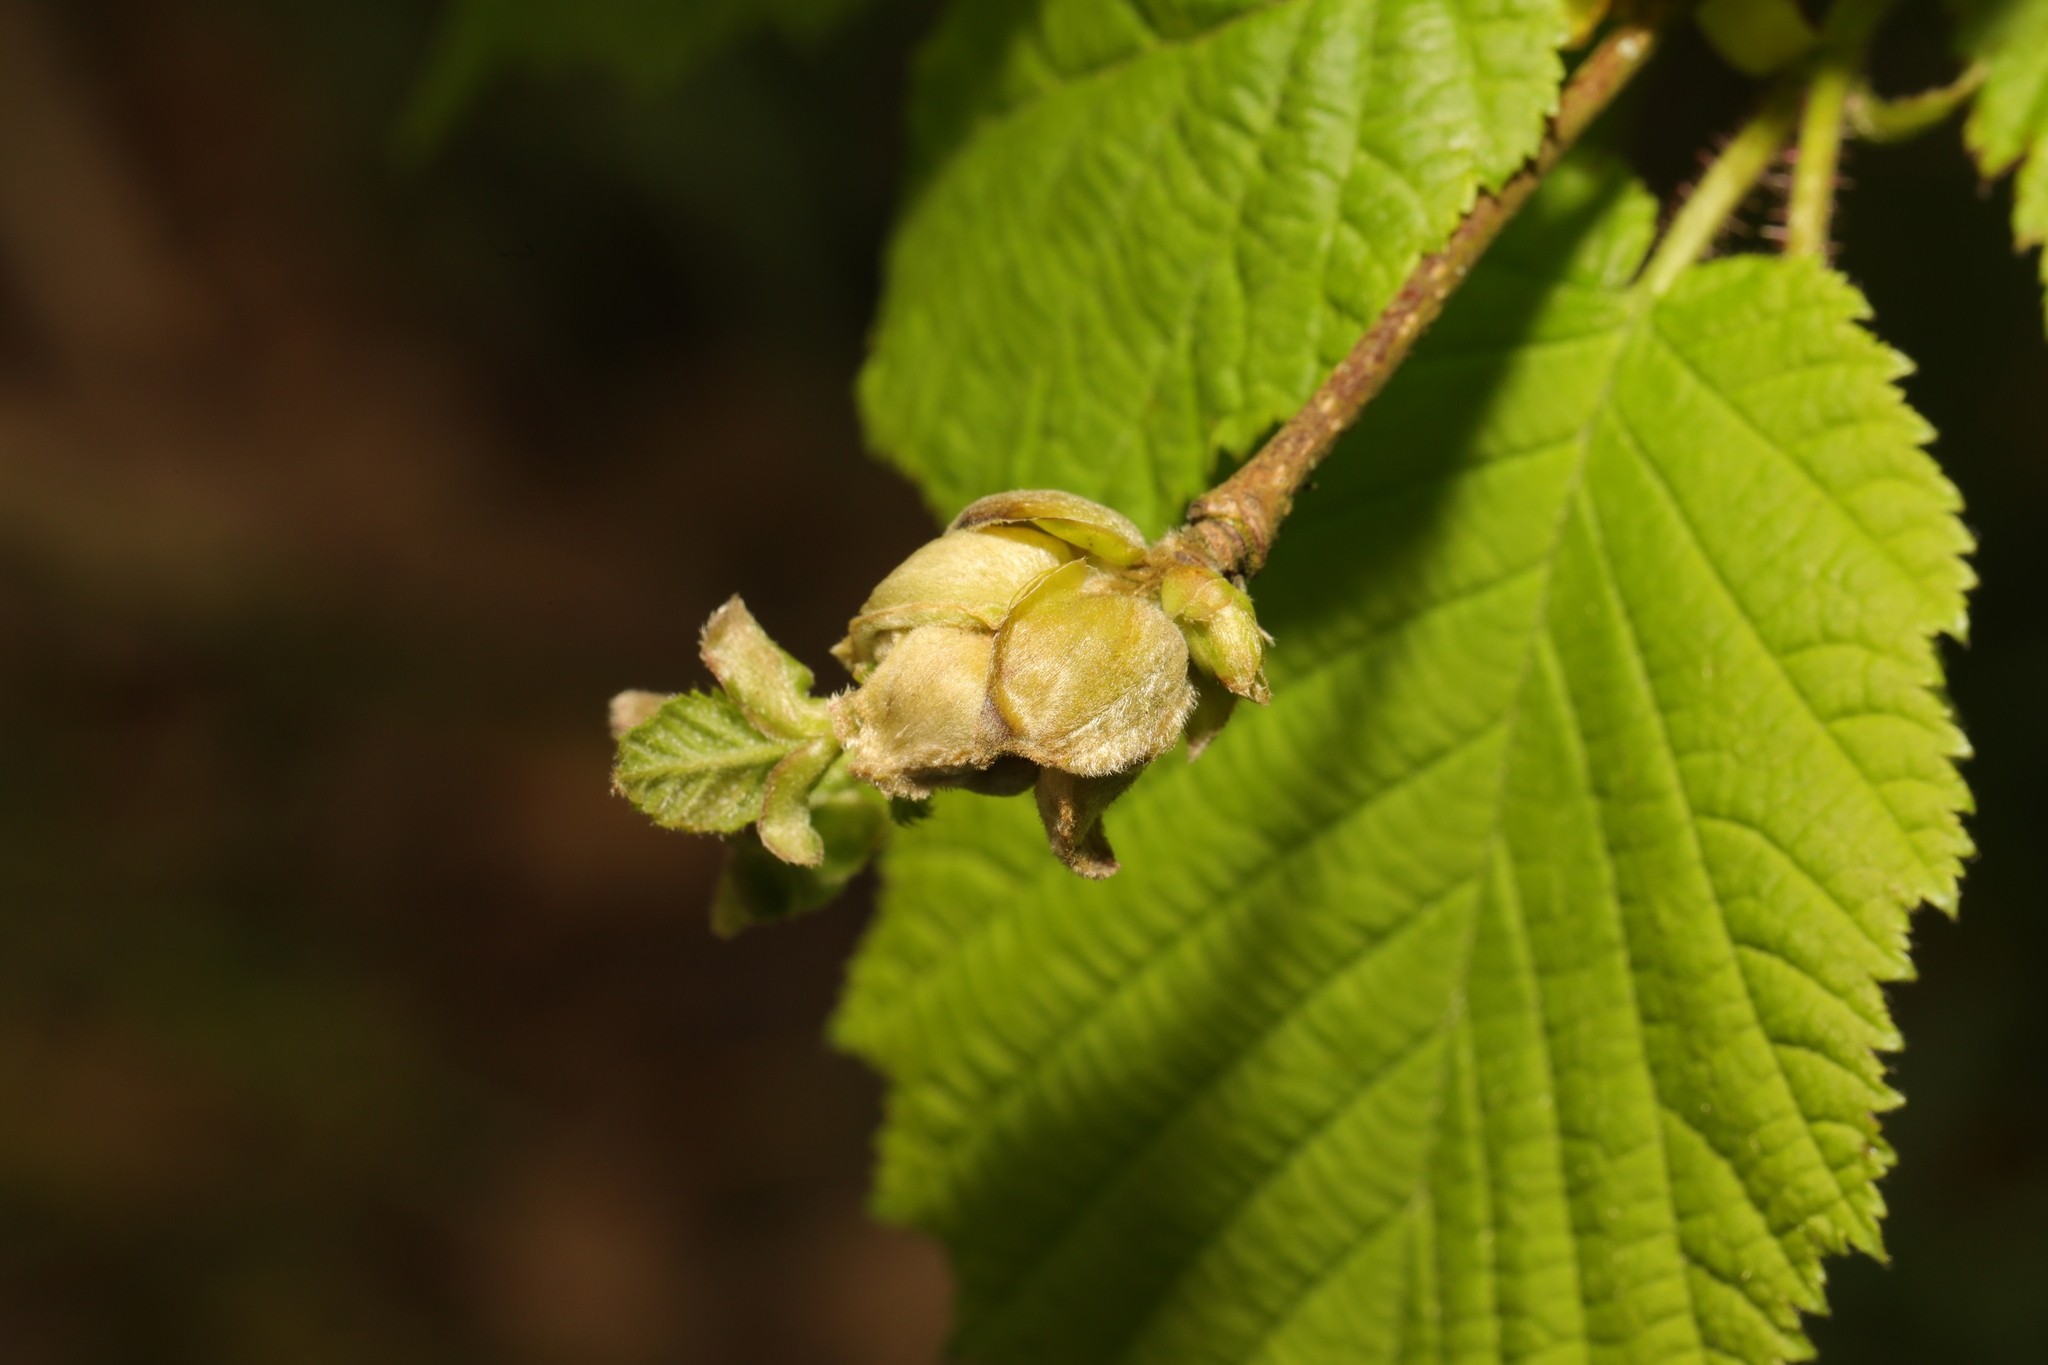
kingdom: Animalia
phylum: Arthropoda
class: Arachnida
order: Trombidiformes
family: Phytoptidae
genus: Phytoptus
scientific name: Phytoptus avellanae
